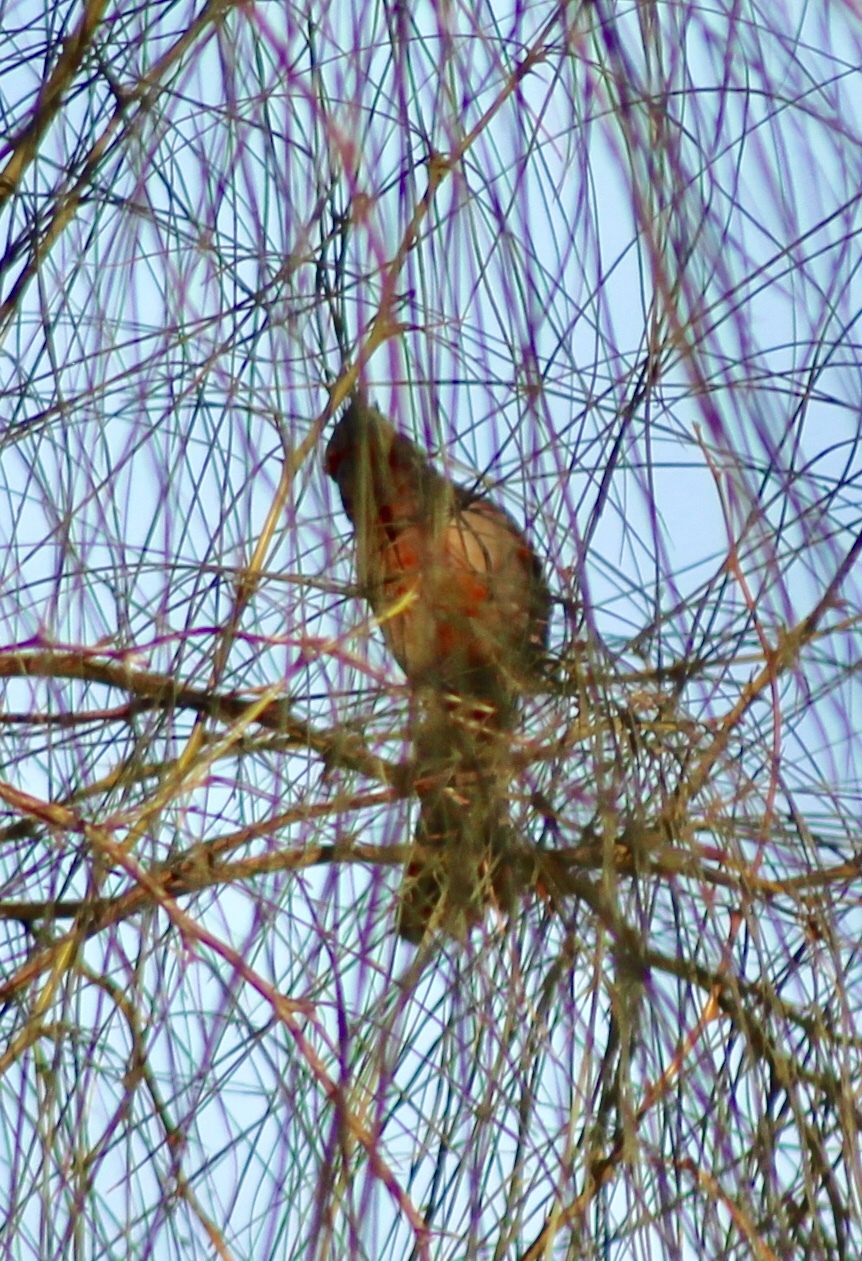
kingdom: Animalia
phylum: Chordata
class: Aves
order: Passeriformes
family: Cardinalidae
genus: Cardinalis
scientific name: Cardinalis sinuatus
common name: Pyrrhuloxia
